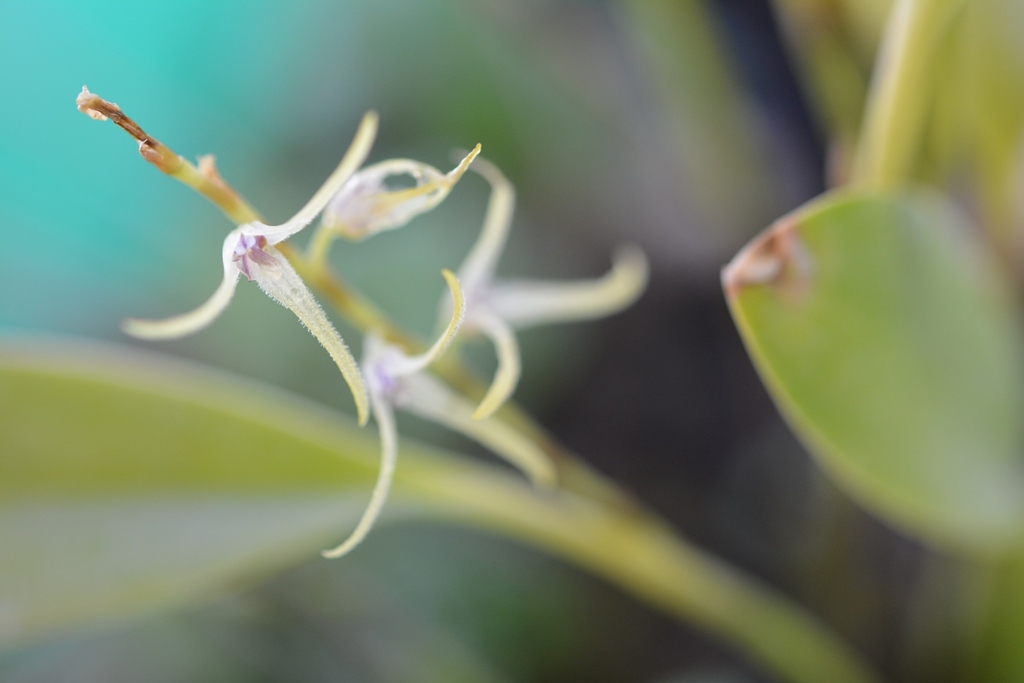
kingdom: Plantae
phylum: Tracheophyta
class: Liliopsida
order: Asparagales
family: Orchidaceae
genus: Stelis
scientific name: Stelis poasensis
